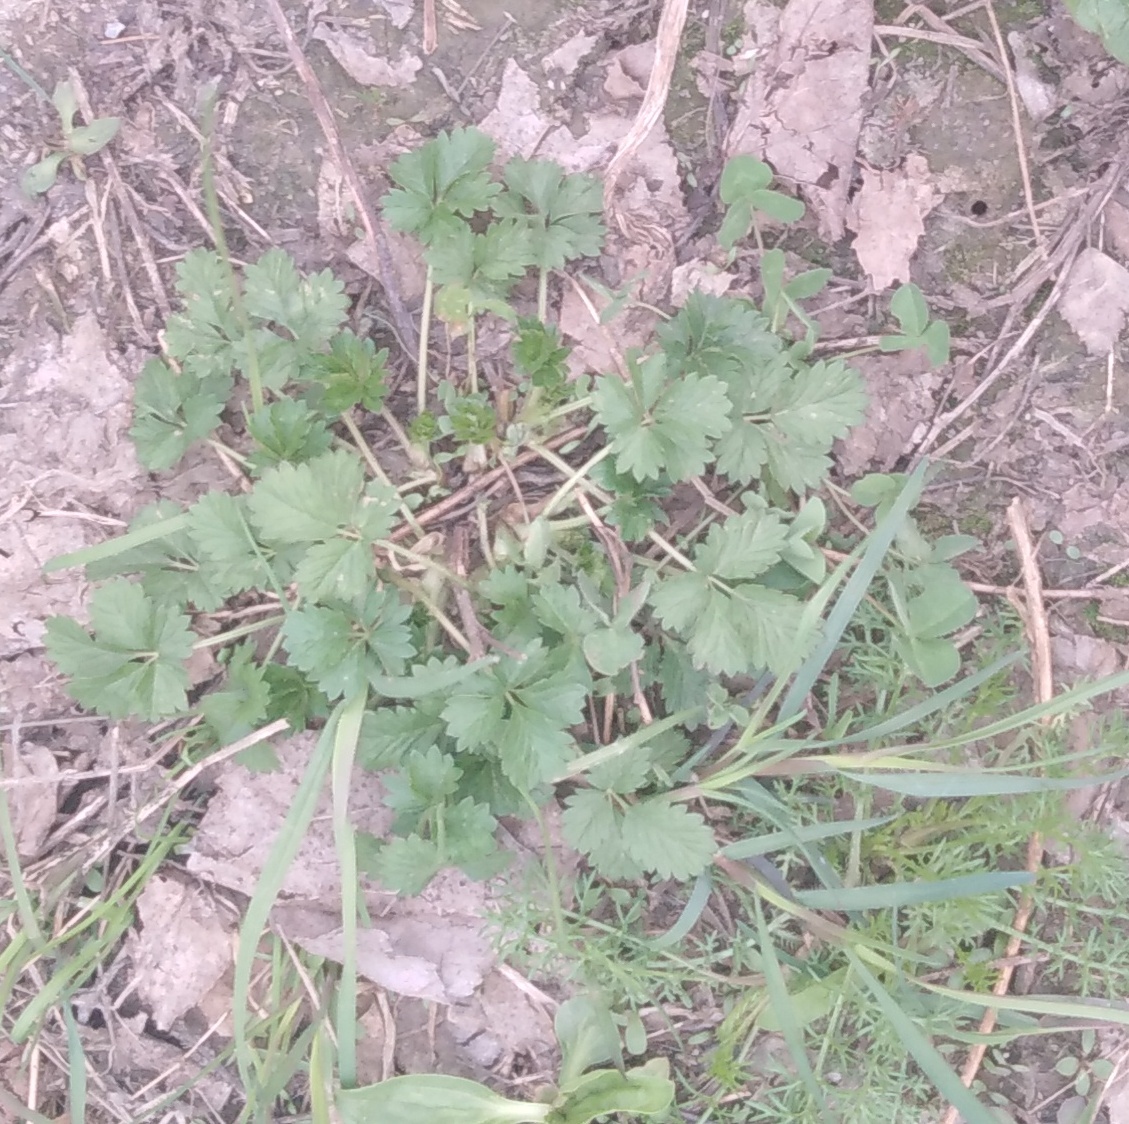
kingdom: Plantae
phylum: Tracheophyta
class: Magnoliopsida
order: Rosales
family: Rosaceae
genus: Potentilla
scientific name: Potentilla intermedia
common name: Downy cinquefoil
